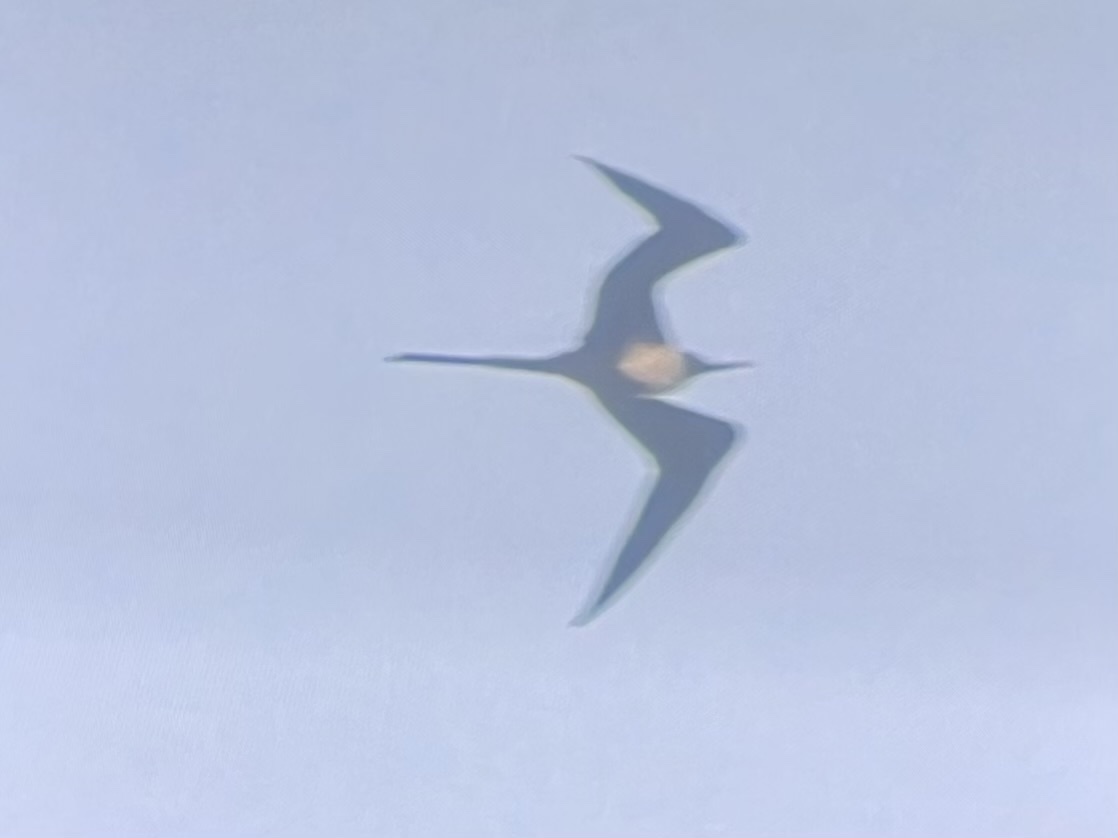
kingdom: Animalia
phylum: Chordata
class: Aves
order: Suliformes
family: Fregatidae
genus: Fregata
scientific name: Fregata magnificens
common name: Magnificent frigatebird
